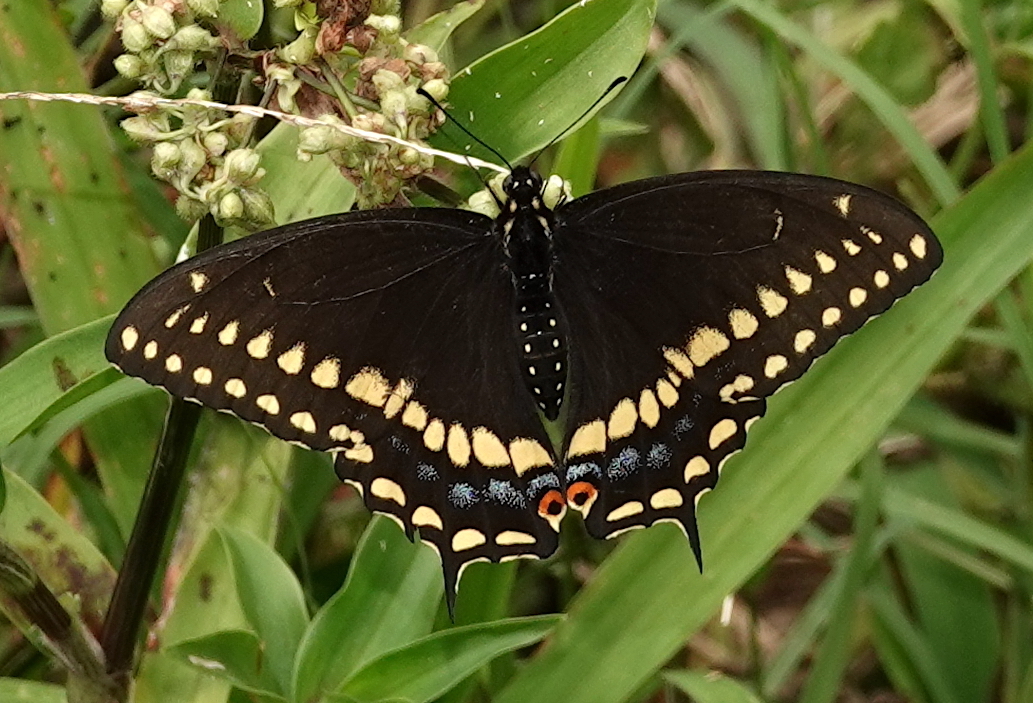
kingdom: Animalia
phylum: Arthropoda
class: Insecta
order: Lepidoptera
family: Papilionidae
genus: Papilio
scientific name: Papilio polyxenes
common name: Black swallowtail
